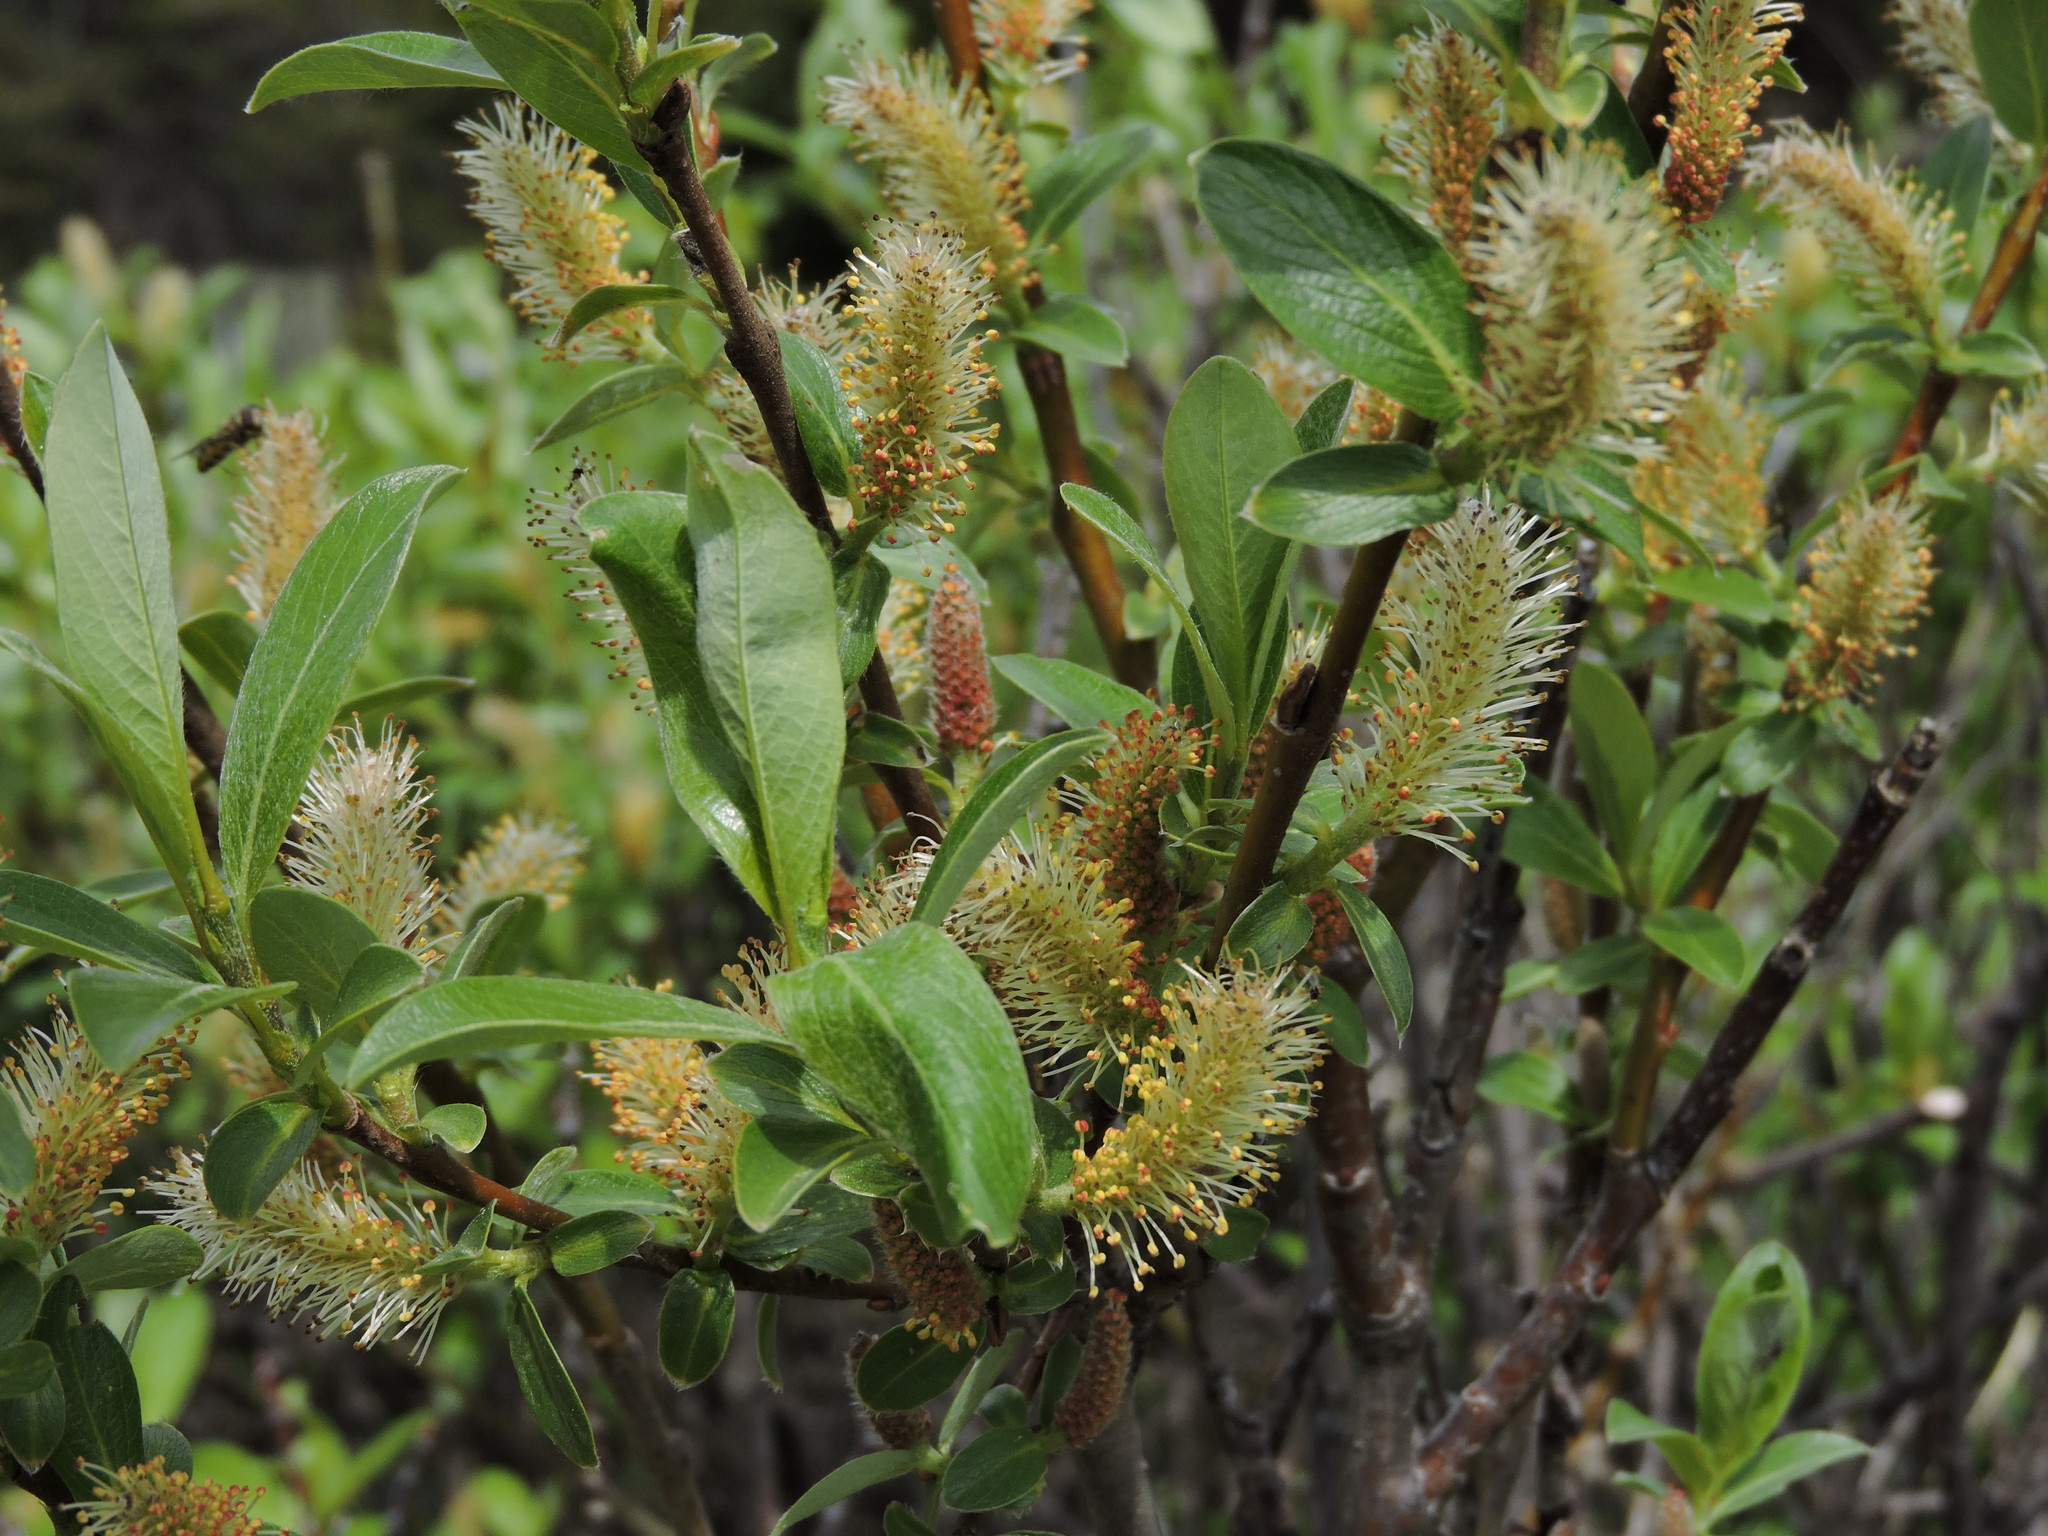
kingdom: Plantae
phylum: Tracheophyta
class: Magnoliopsida
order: Malpighiales
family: Salicaceae
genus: Salix
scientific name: Salix glauca
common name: Glaucous willow
